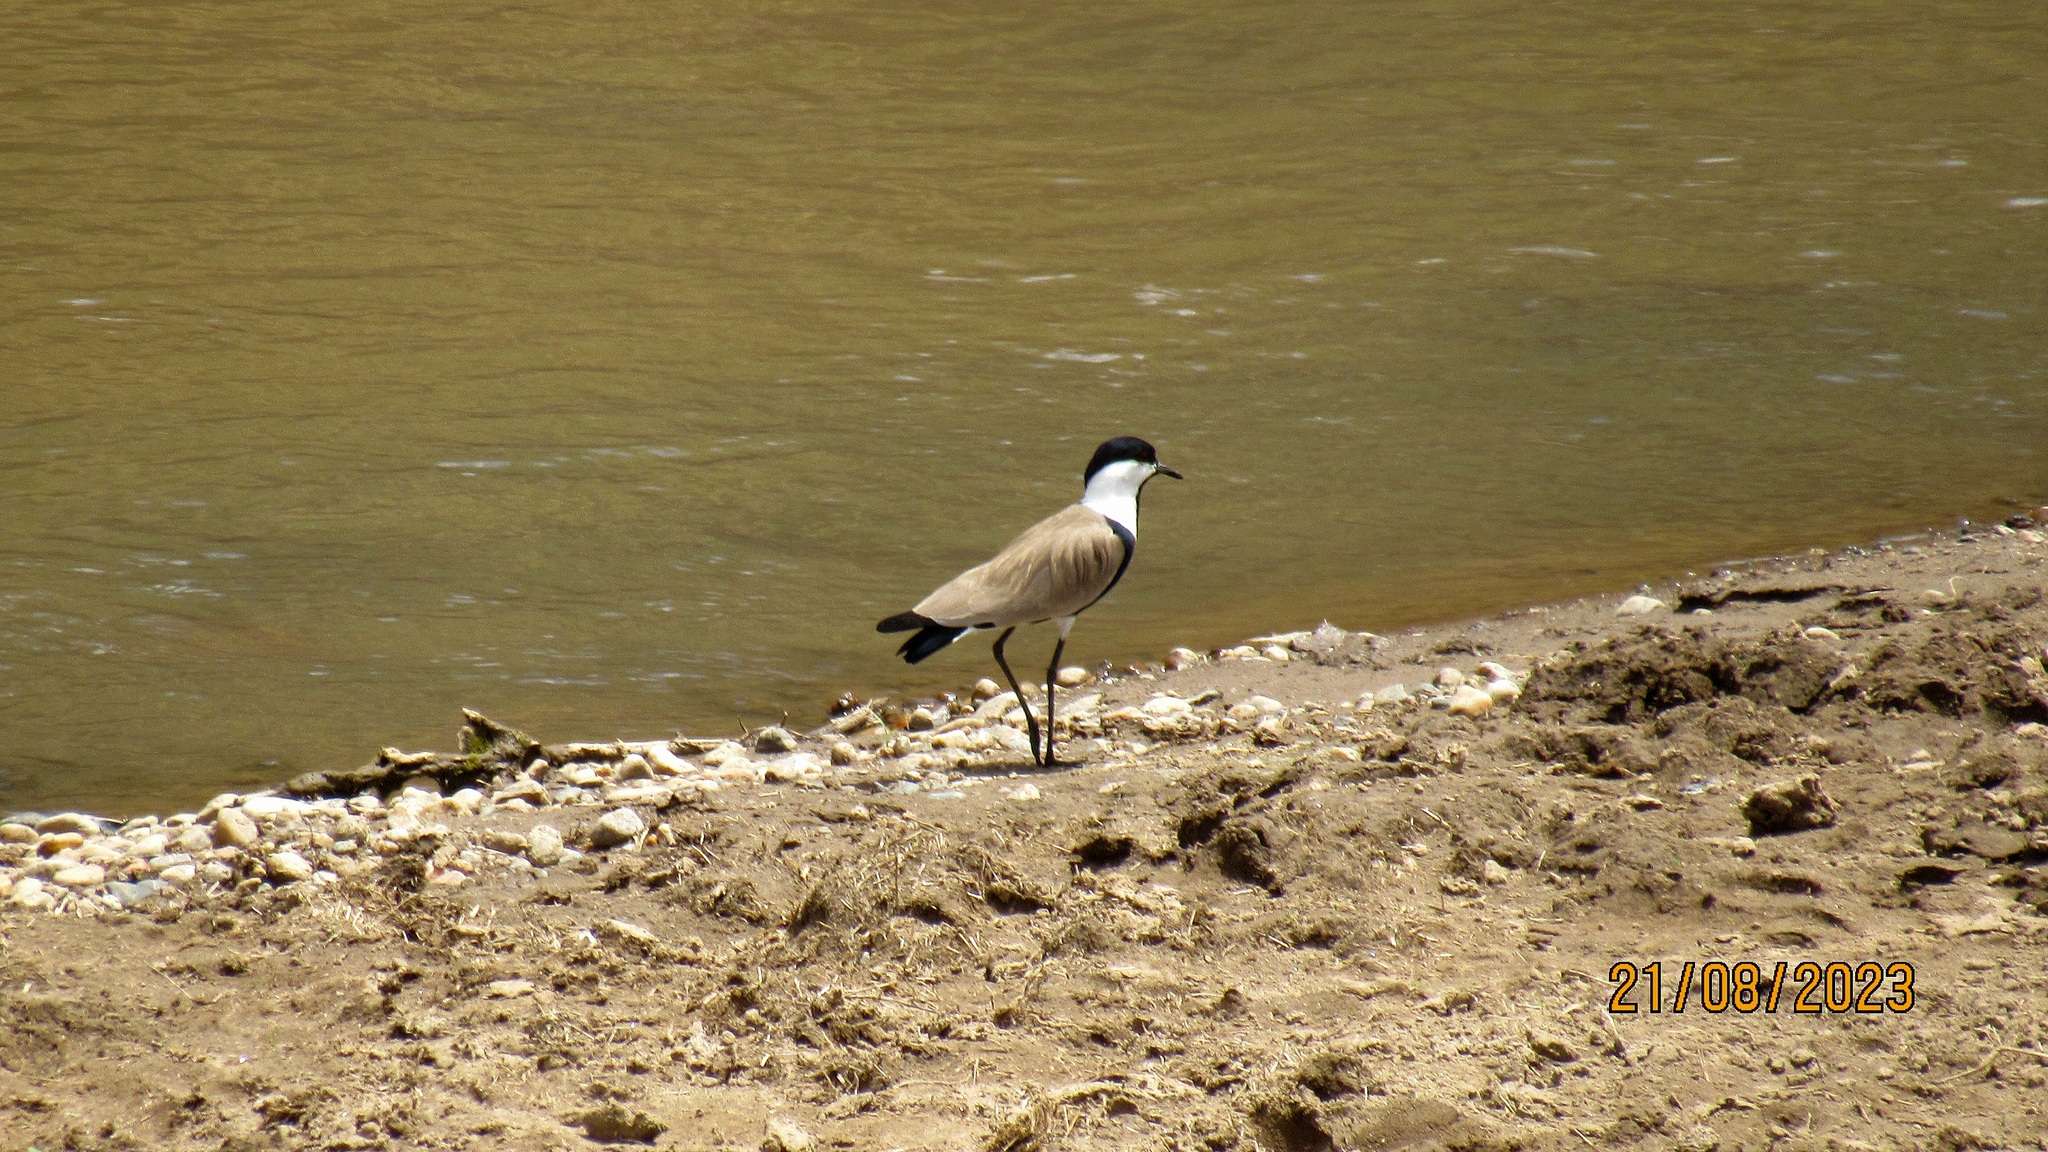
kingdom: Animalia
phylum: Chordata
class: Aves
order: Charadriiformes
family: Charadriidae
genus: Vanellus
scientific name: Vanellus spinosus
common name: Spur-winged lapwing
